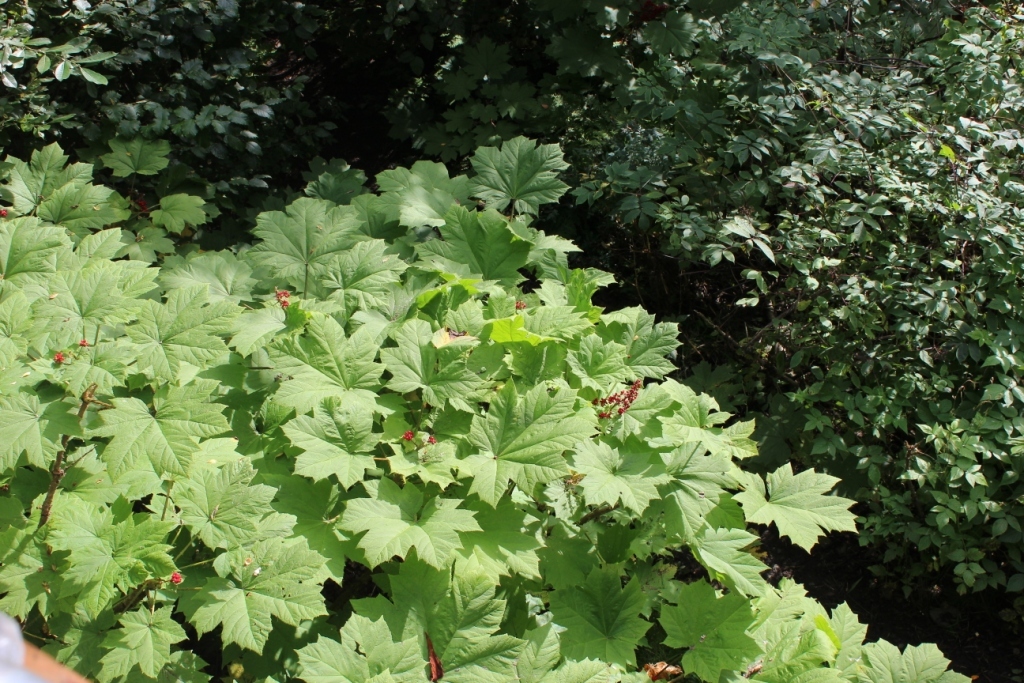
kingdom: Plantae
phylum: Tracheophyta
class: Magnoliopsida
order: Apiales
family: Araliaceae
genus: Oplopanax
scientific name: Oplopanax horridus
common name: Devil's walking-stick
